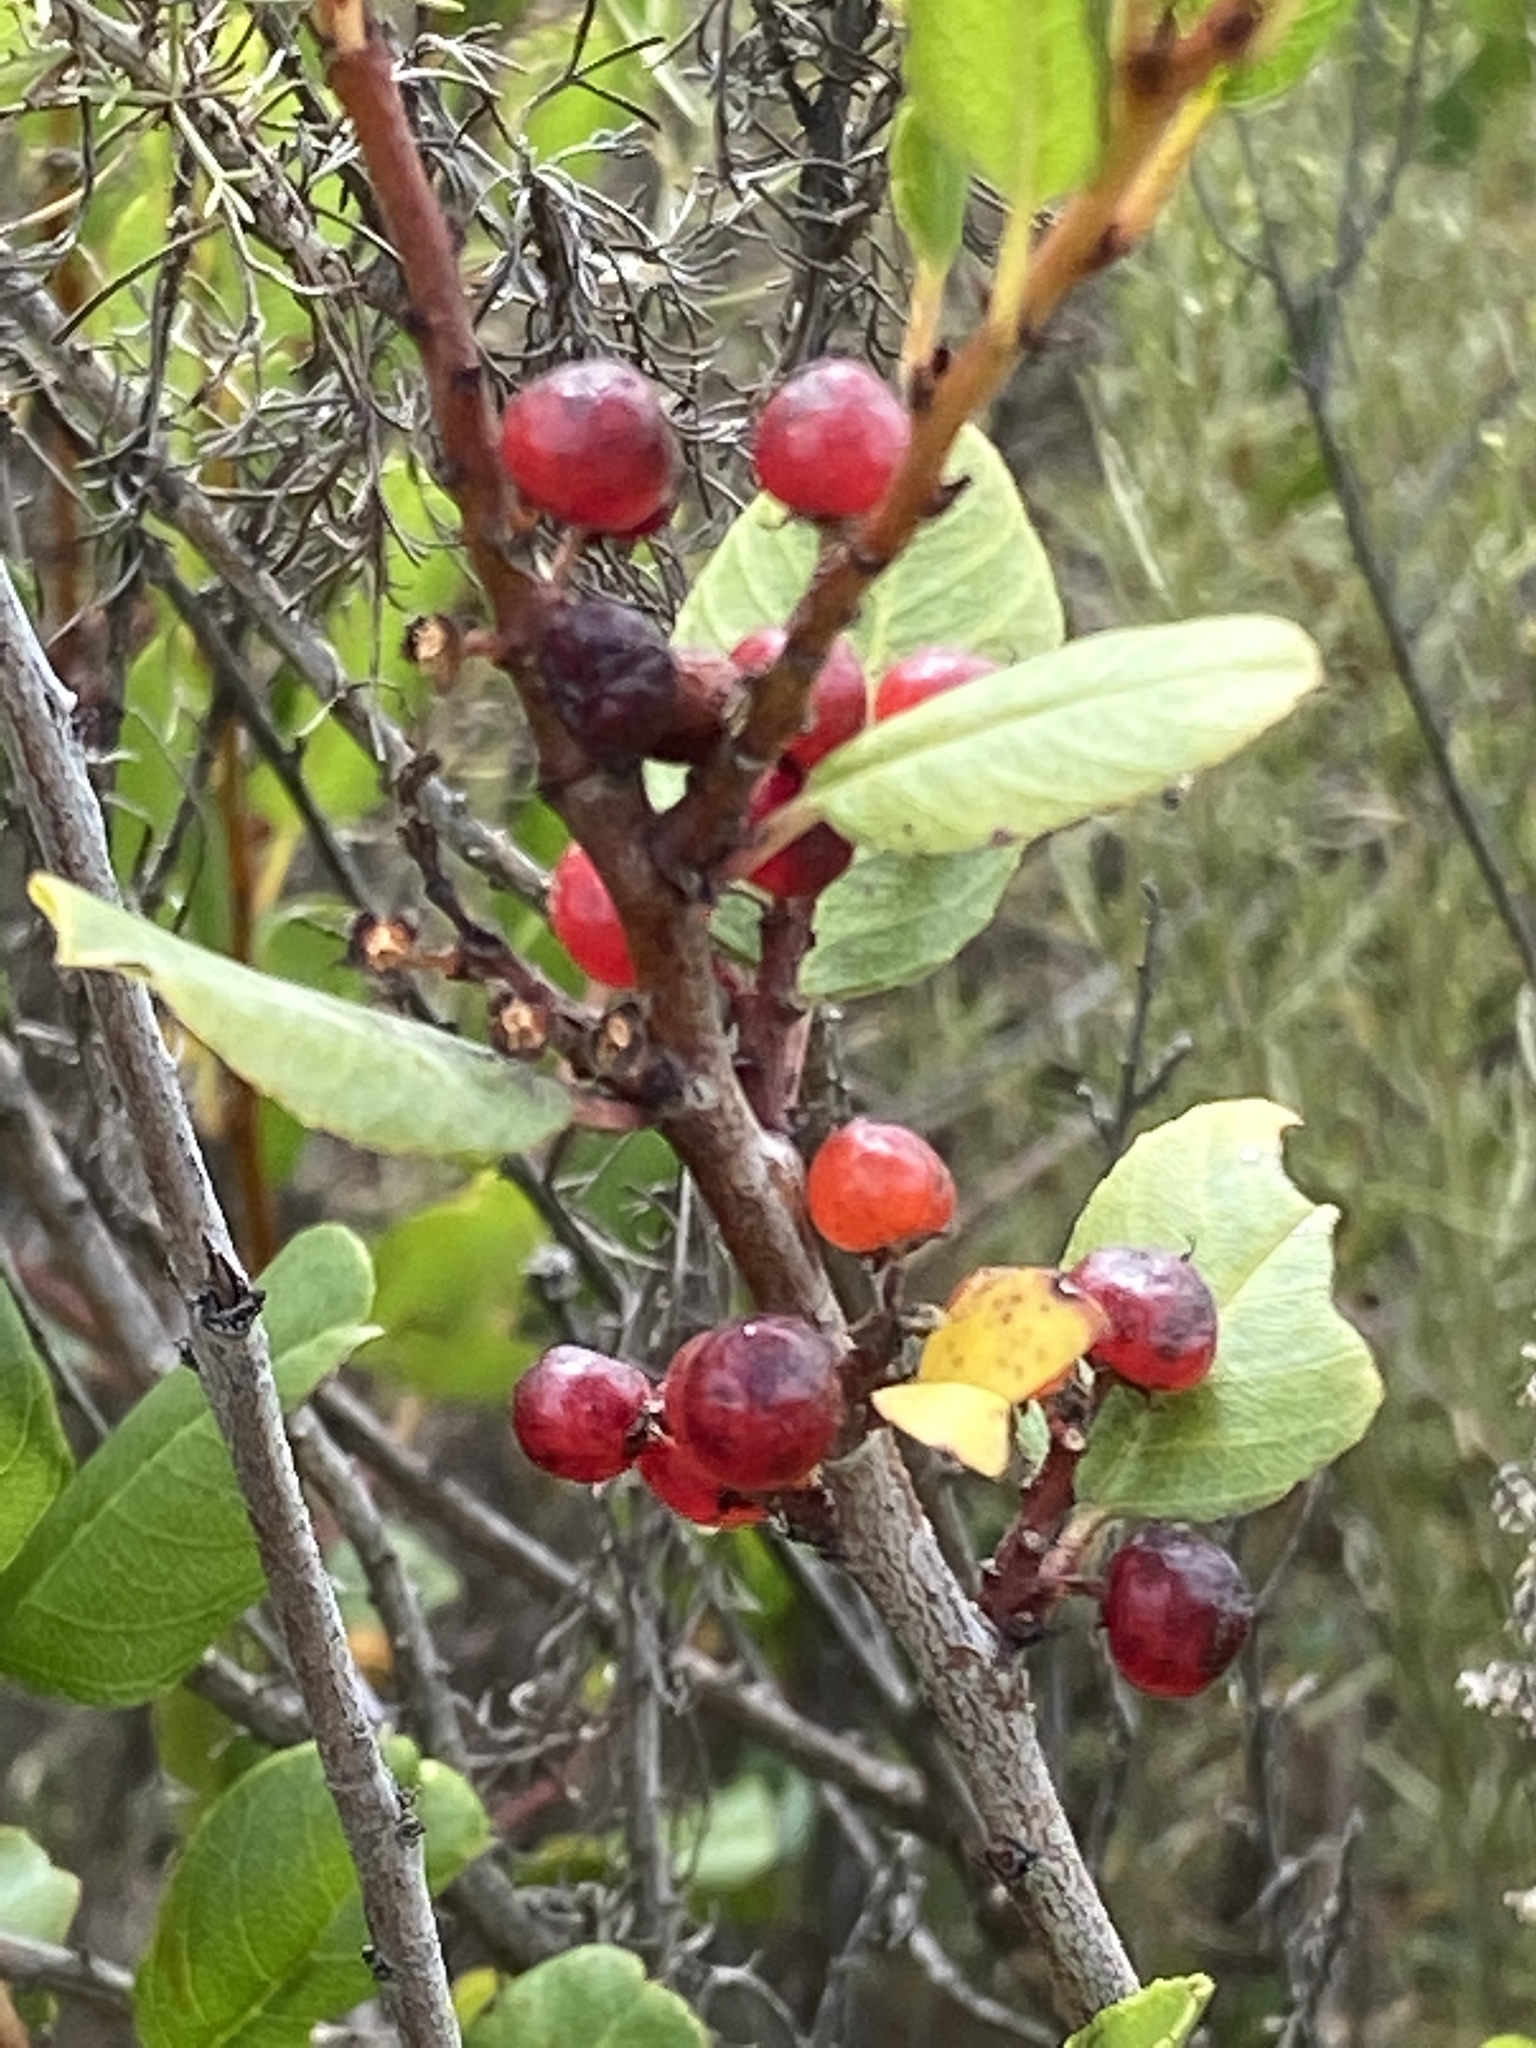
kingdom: Plantae
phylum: Tracheophyta
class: Magnoliopsida
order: Rosales
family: Rhamnaceae
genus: Endotropis
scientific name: Endotropis crocea
